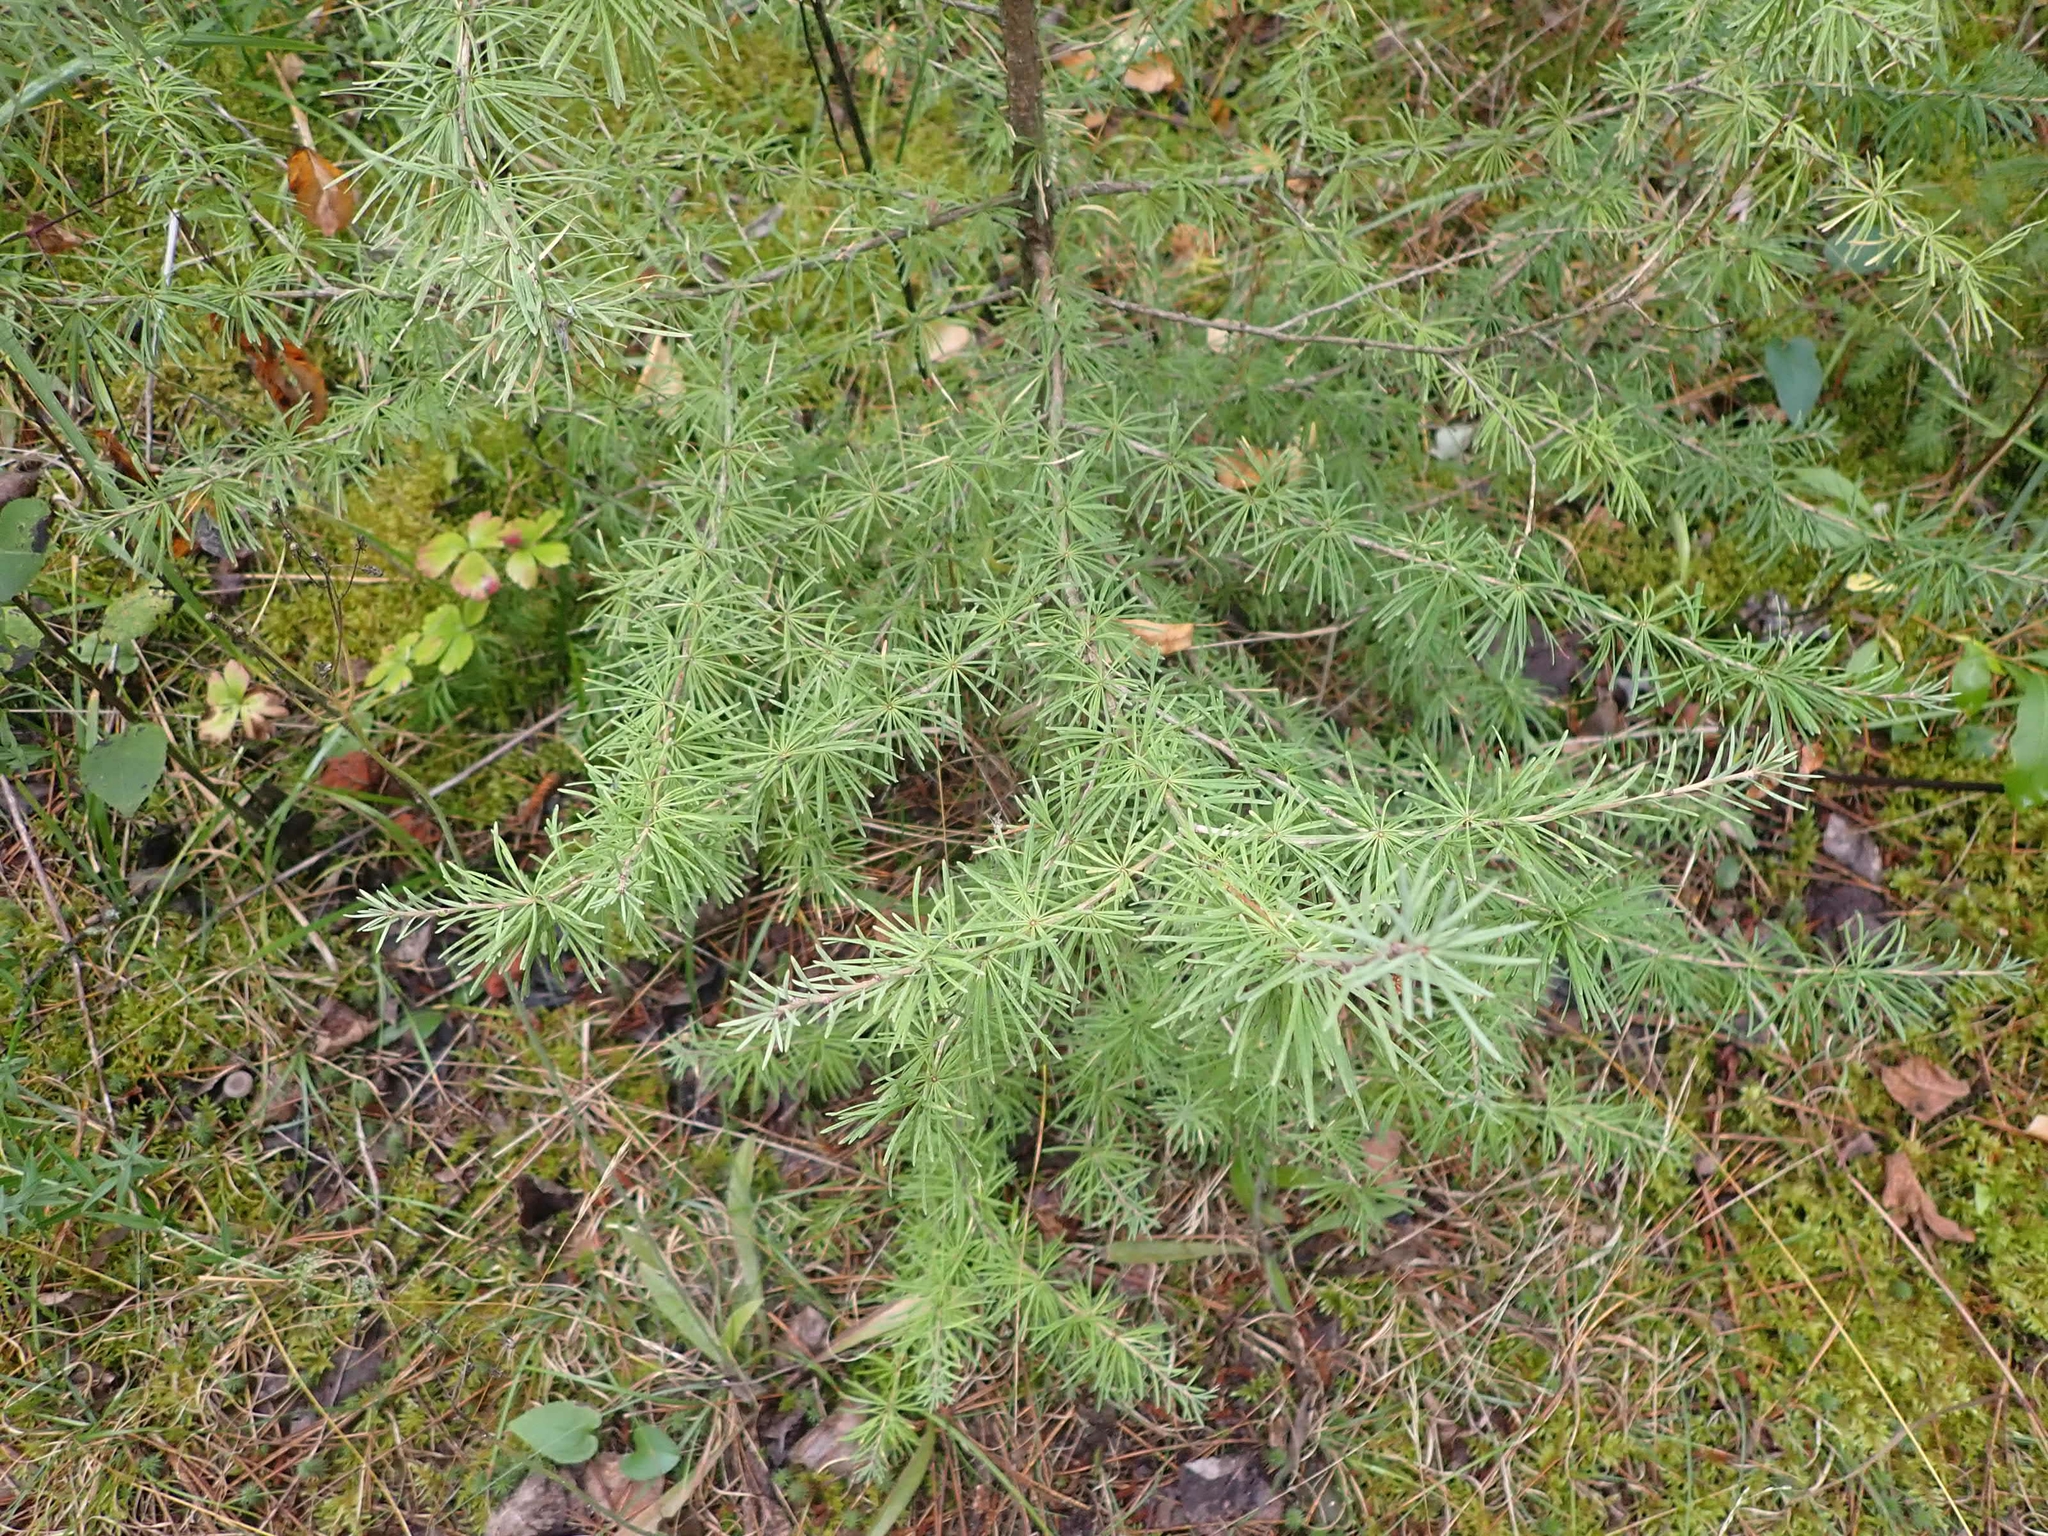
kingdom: Plantae
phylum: Tracheophyta
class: Pinopsida
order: Pinales
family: Pinaceae
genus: Larix
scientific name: Larix laricina
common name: American larch
